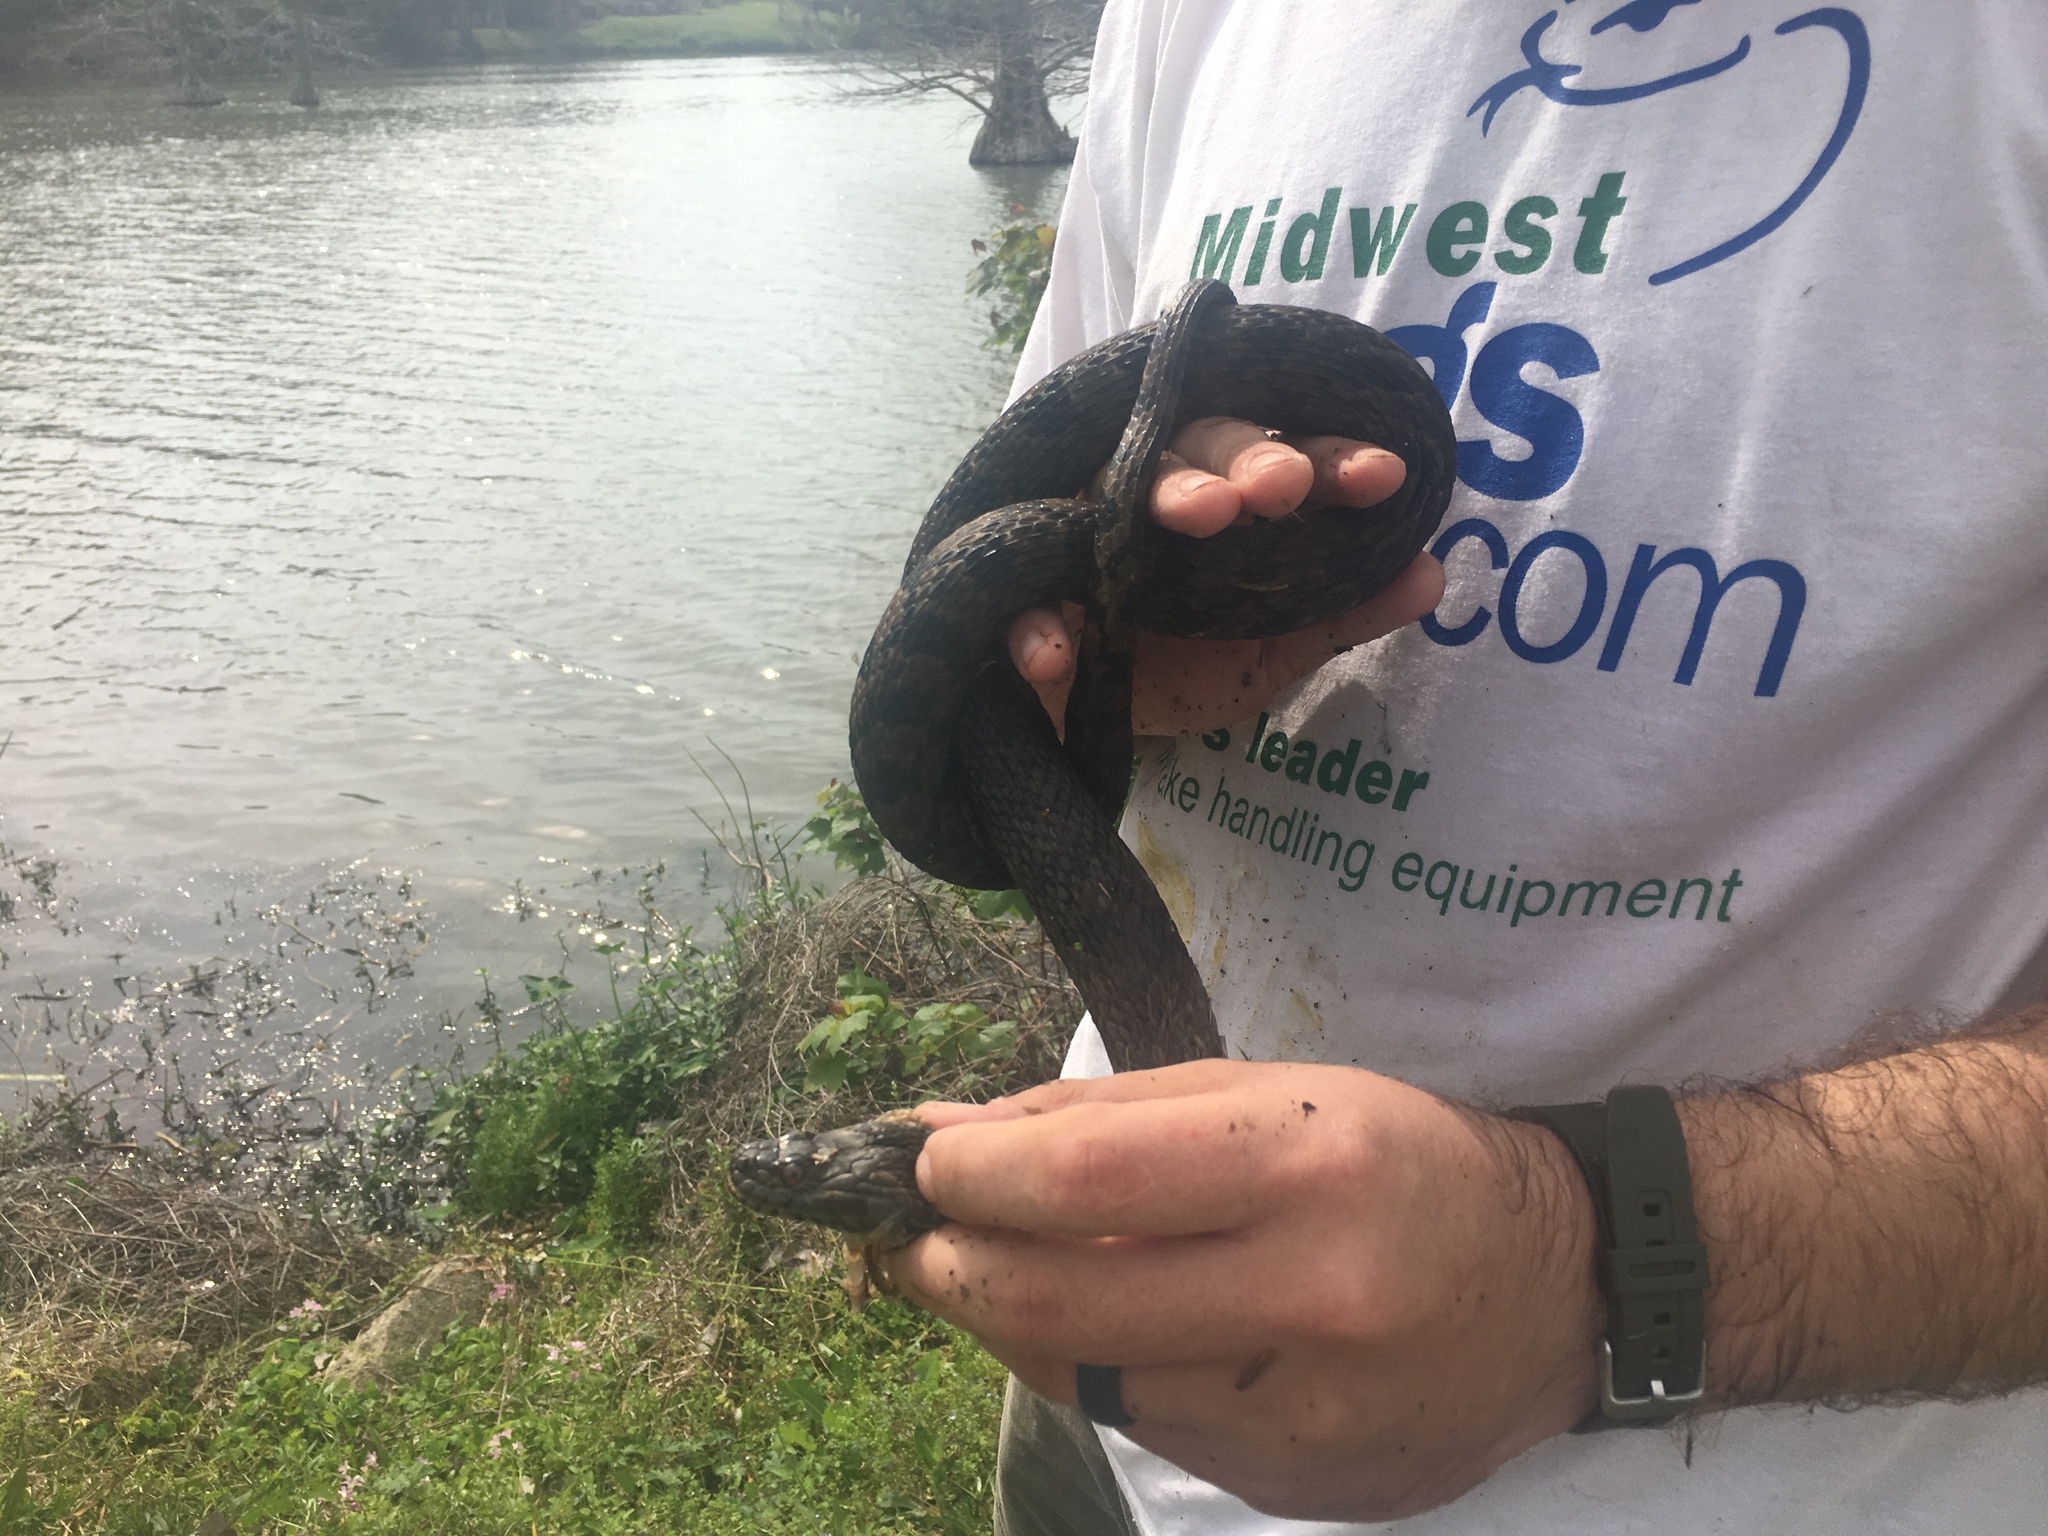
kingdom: Animalia
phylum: Chordata
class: Squamata
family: Colubridae
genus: Nerodia
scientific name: Nerodia rhombifer
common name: Diamondback water snake
